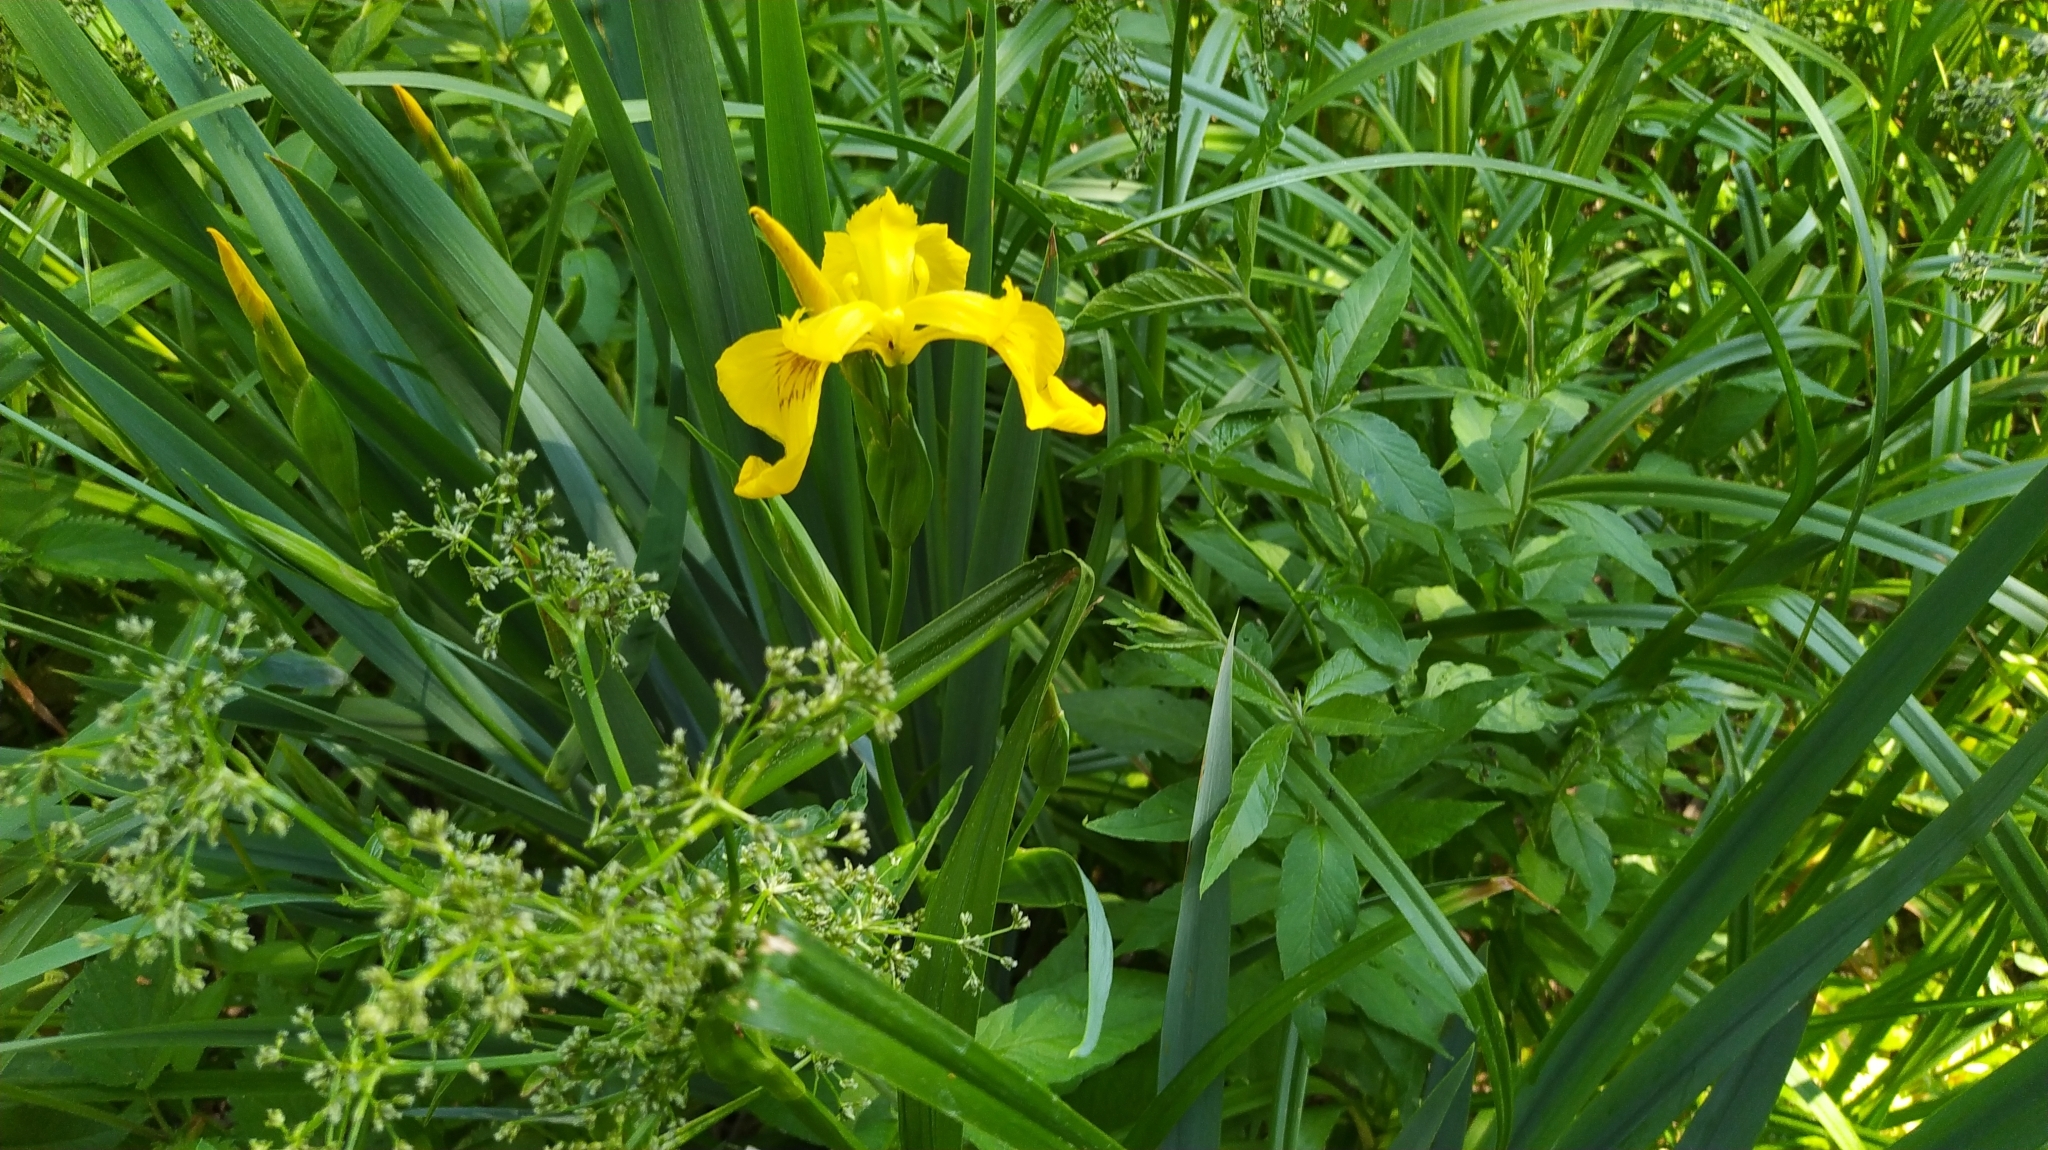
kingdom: Plantae
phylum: Tracheophyta
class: Liliopsida
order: Asparagales
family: Iridaceae
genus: Iris
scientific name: Iris pseudacorus
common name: Yellow flag
